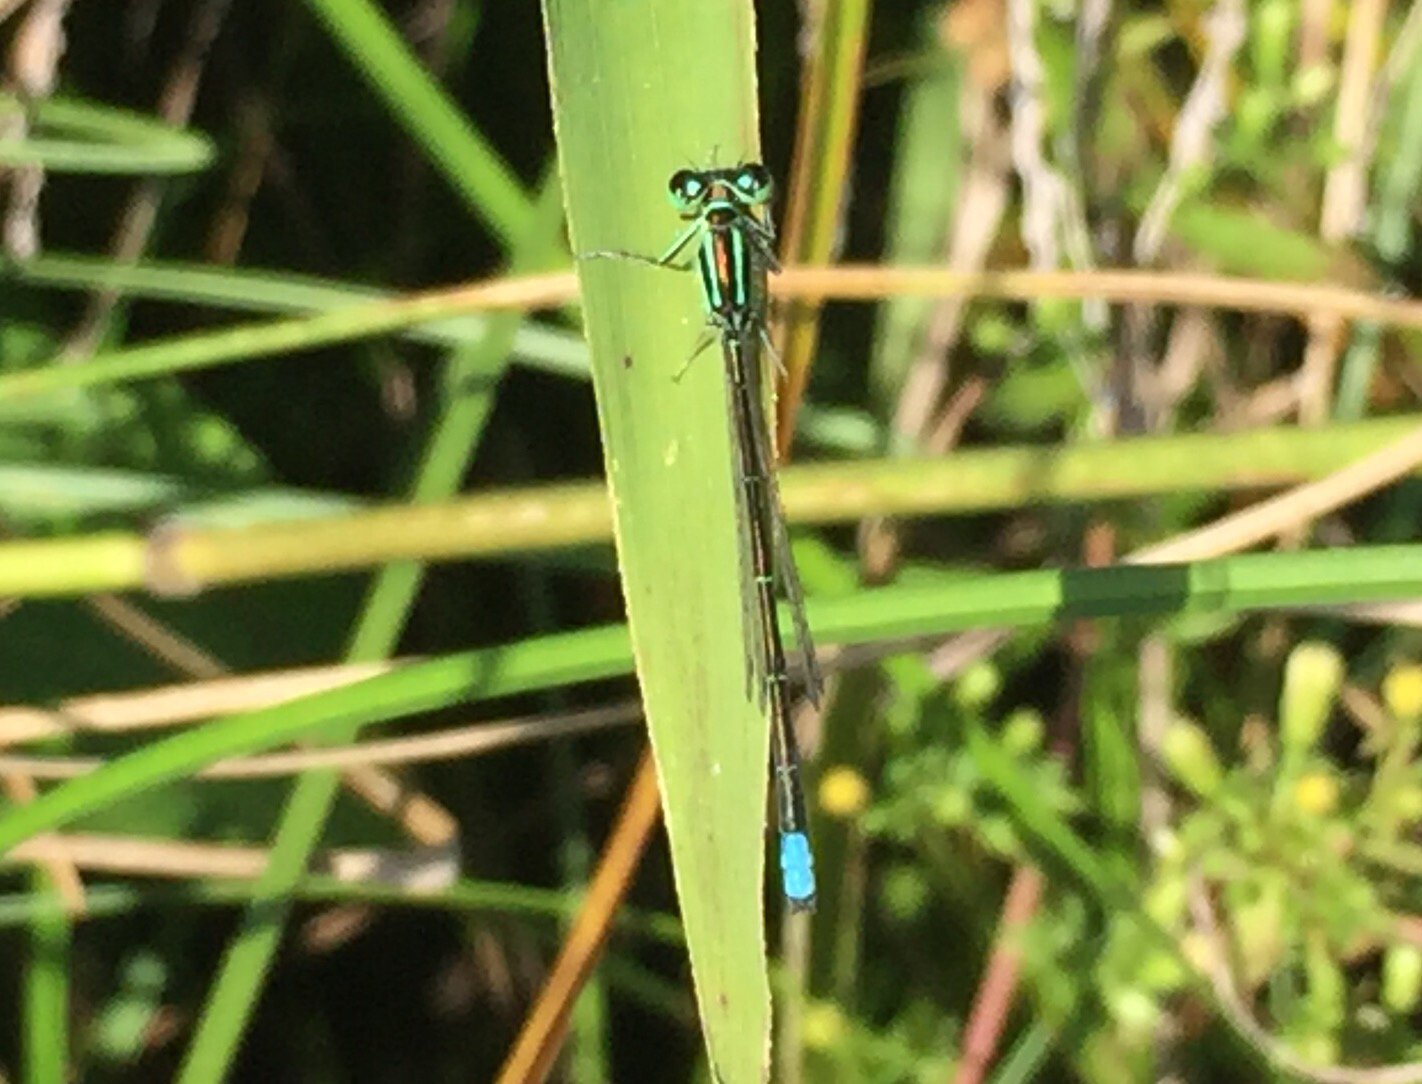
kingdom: Animalia
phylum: Arthropoda
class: Insecta
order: Odonata
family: Coenagrionidae
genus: Ischnura
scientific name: Ischnura verticalis
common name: Eastern forktail
